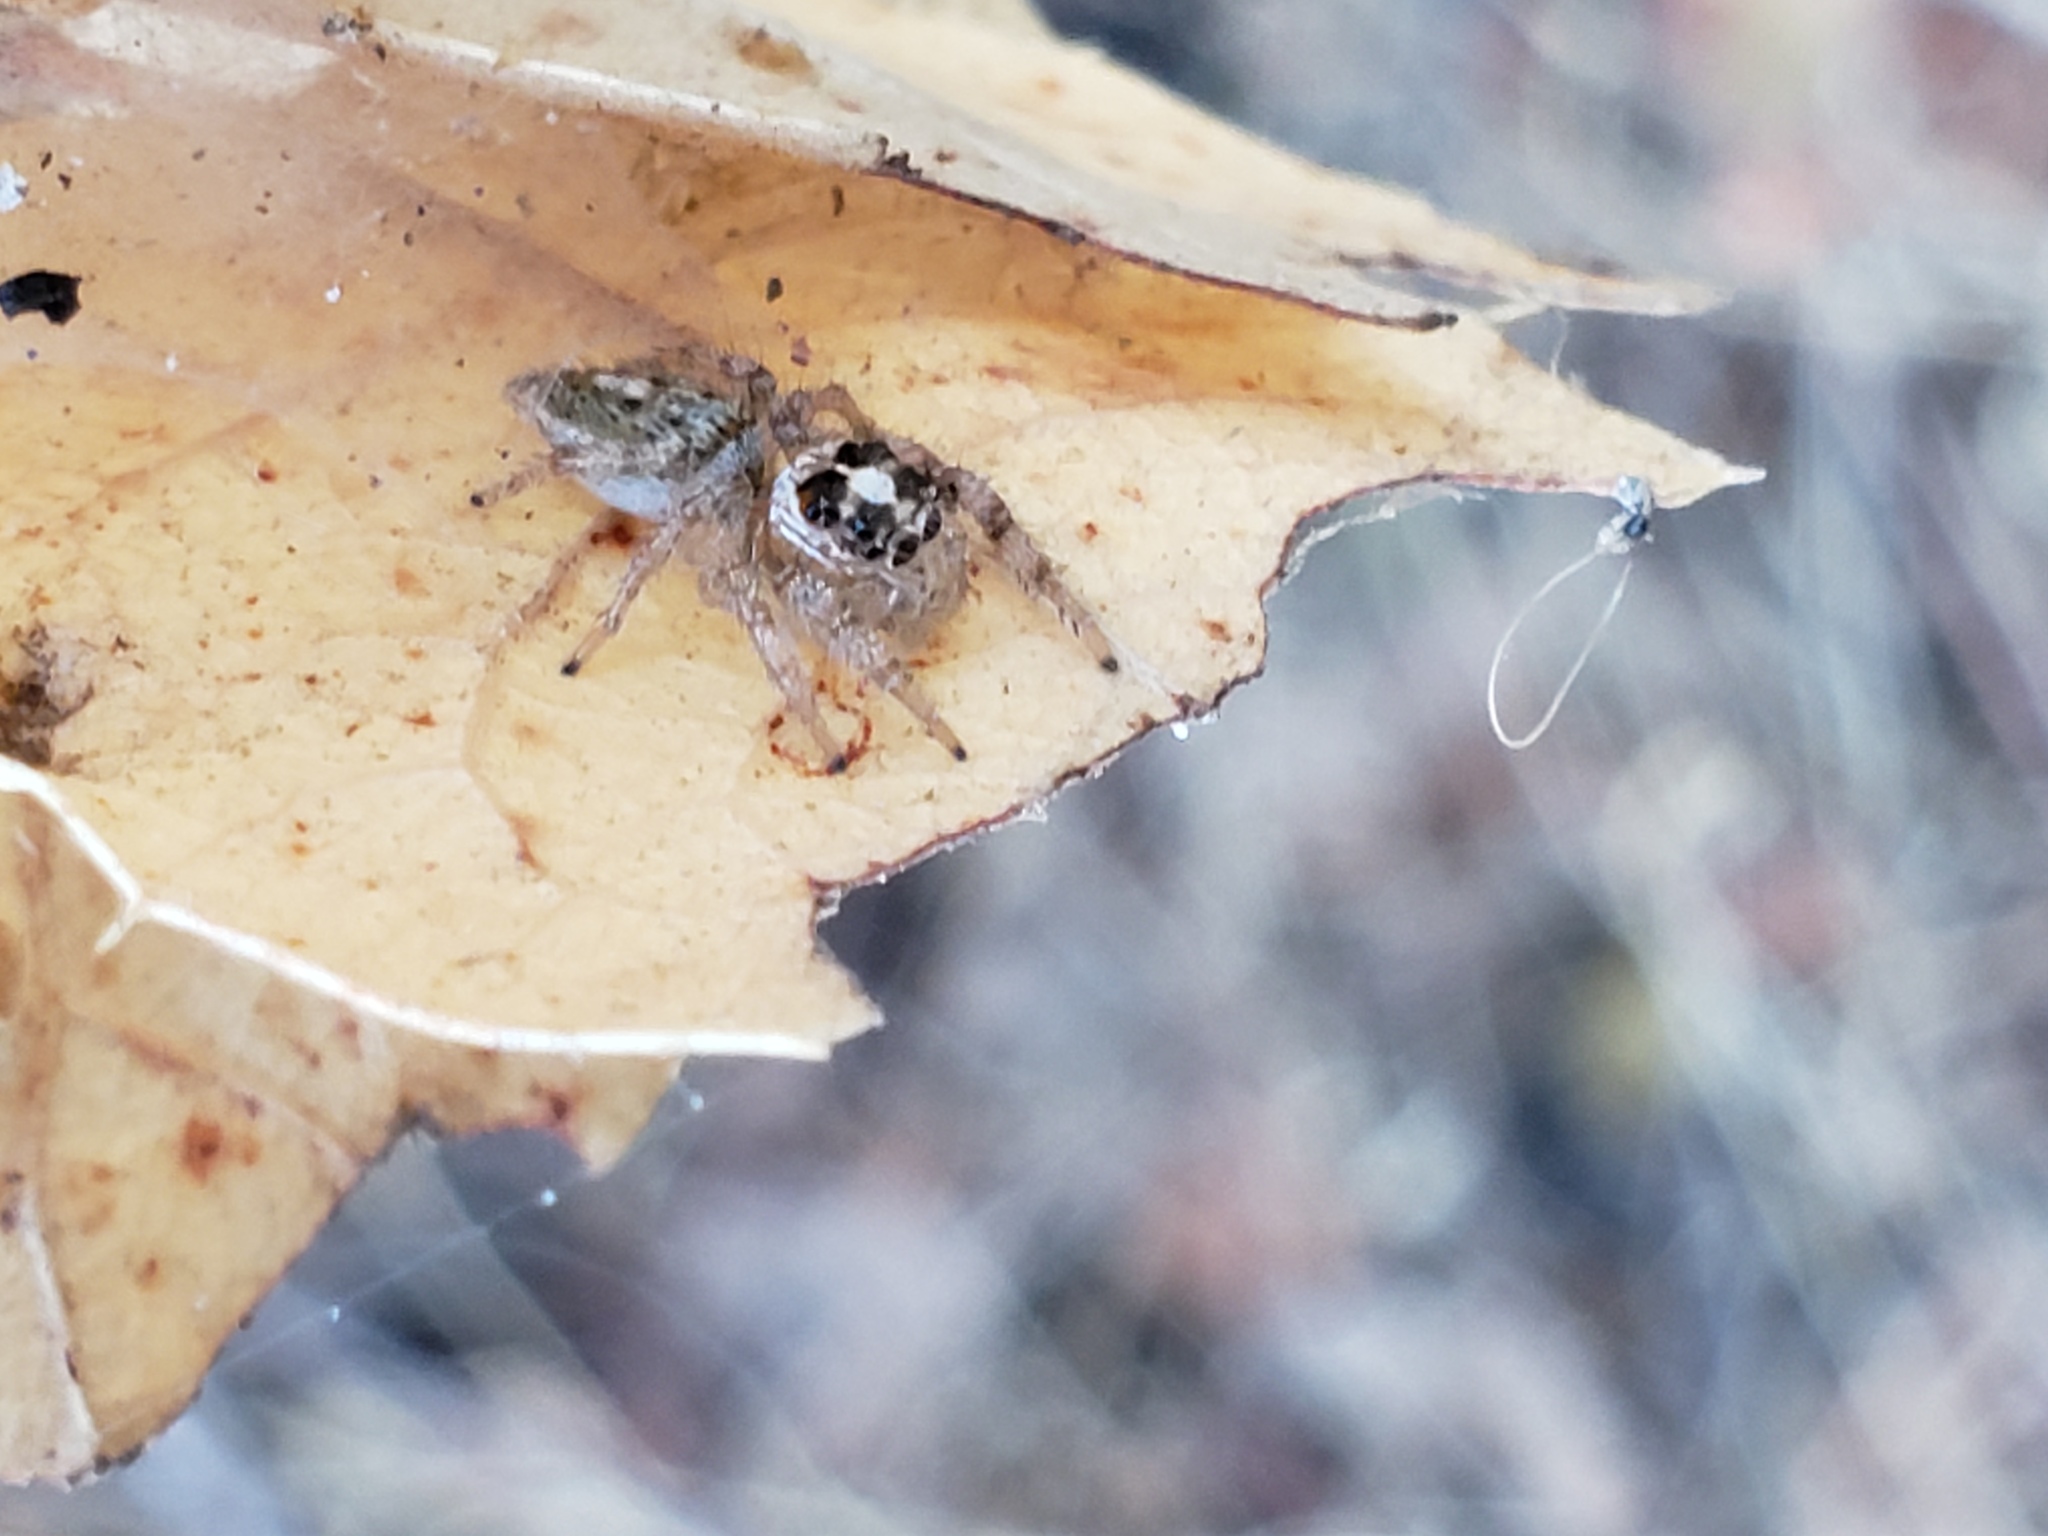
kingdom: Animalia
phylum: Arthropoda
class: Arachnida
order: Araneae
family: Salticidae
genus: Colonus
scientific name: Colonus hesperus
